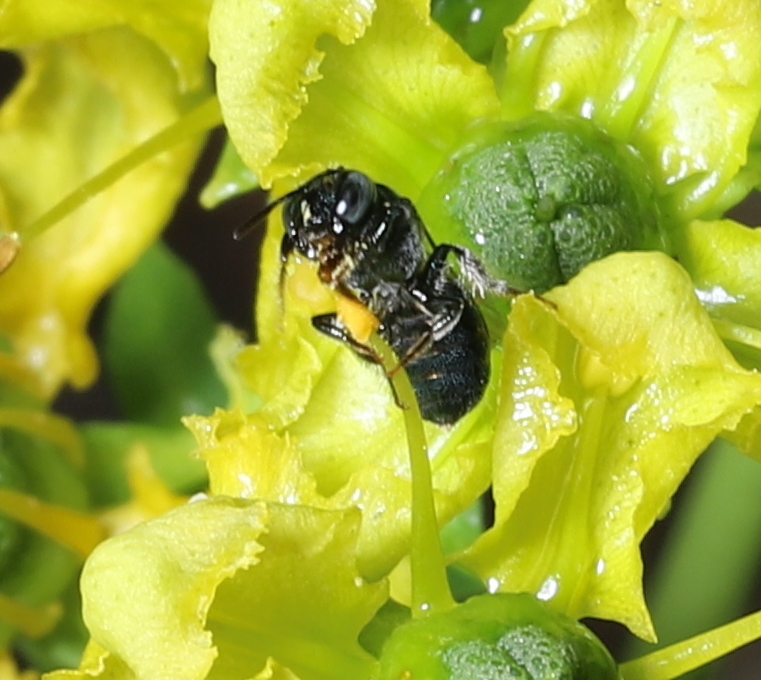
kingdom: Animalia
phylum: Arthropoda
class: Insecta
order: Hymenoptera
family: Apidae
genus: Zadontomerus
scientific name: Zadontomerus
